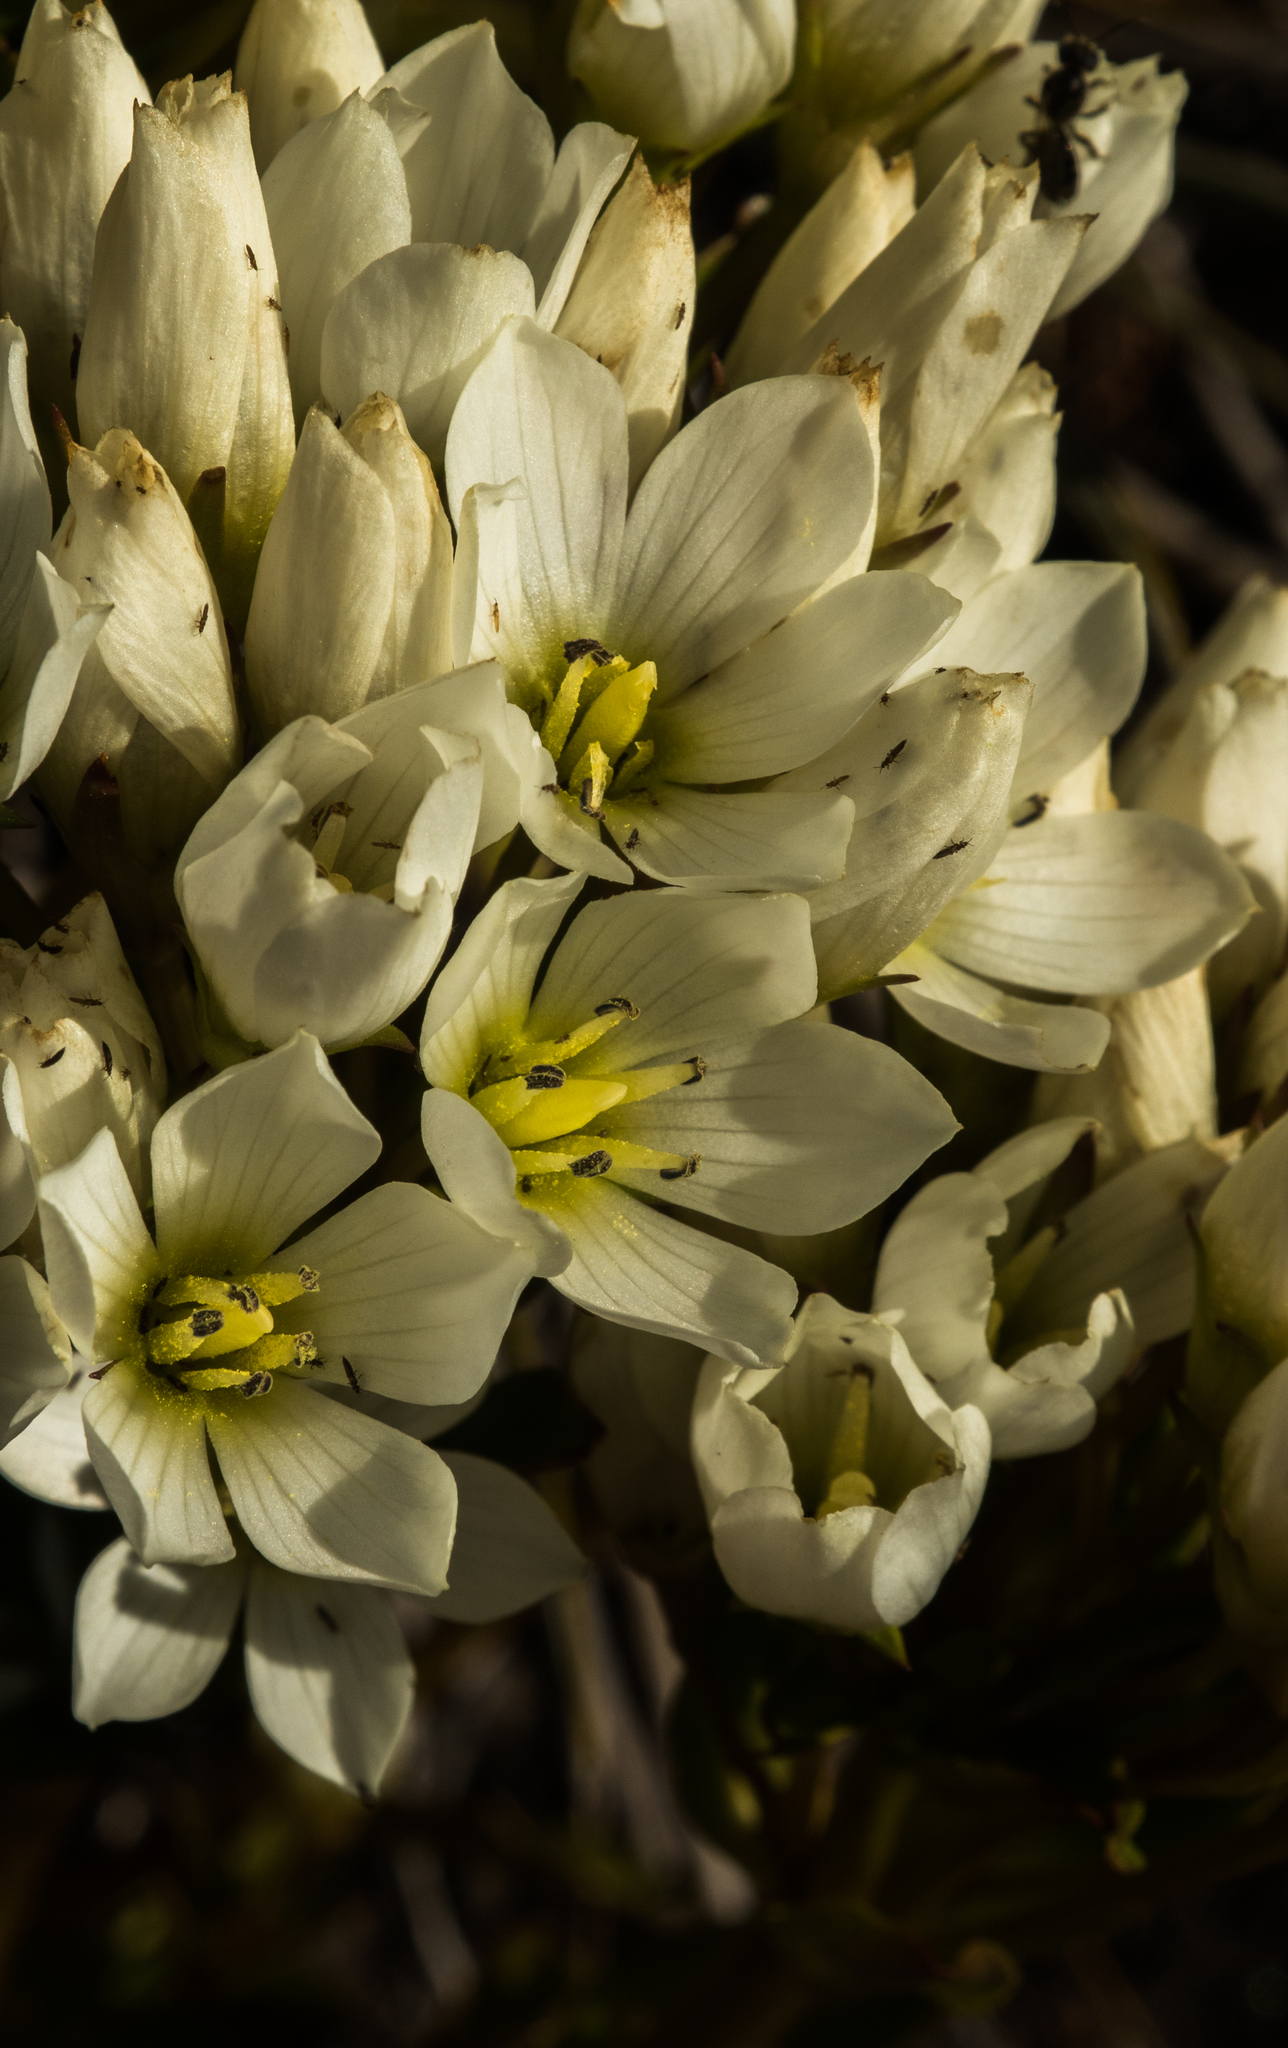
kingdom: Plantae
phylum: Tracheophyta
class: Magnoliopsida
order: Gentianales
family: Gentianaceae
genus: Gentianella
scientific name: Gentianella corymbifera
